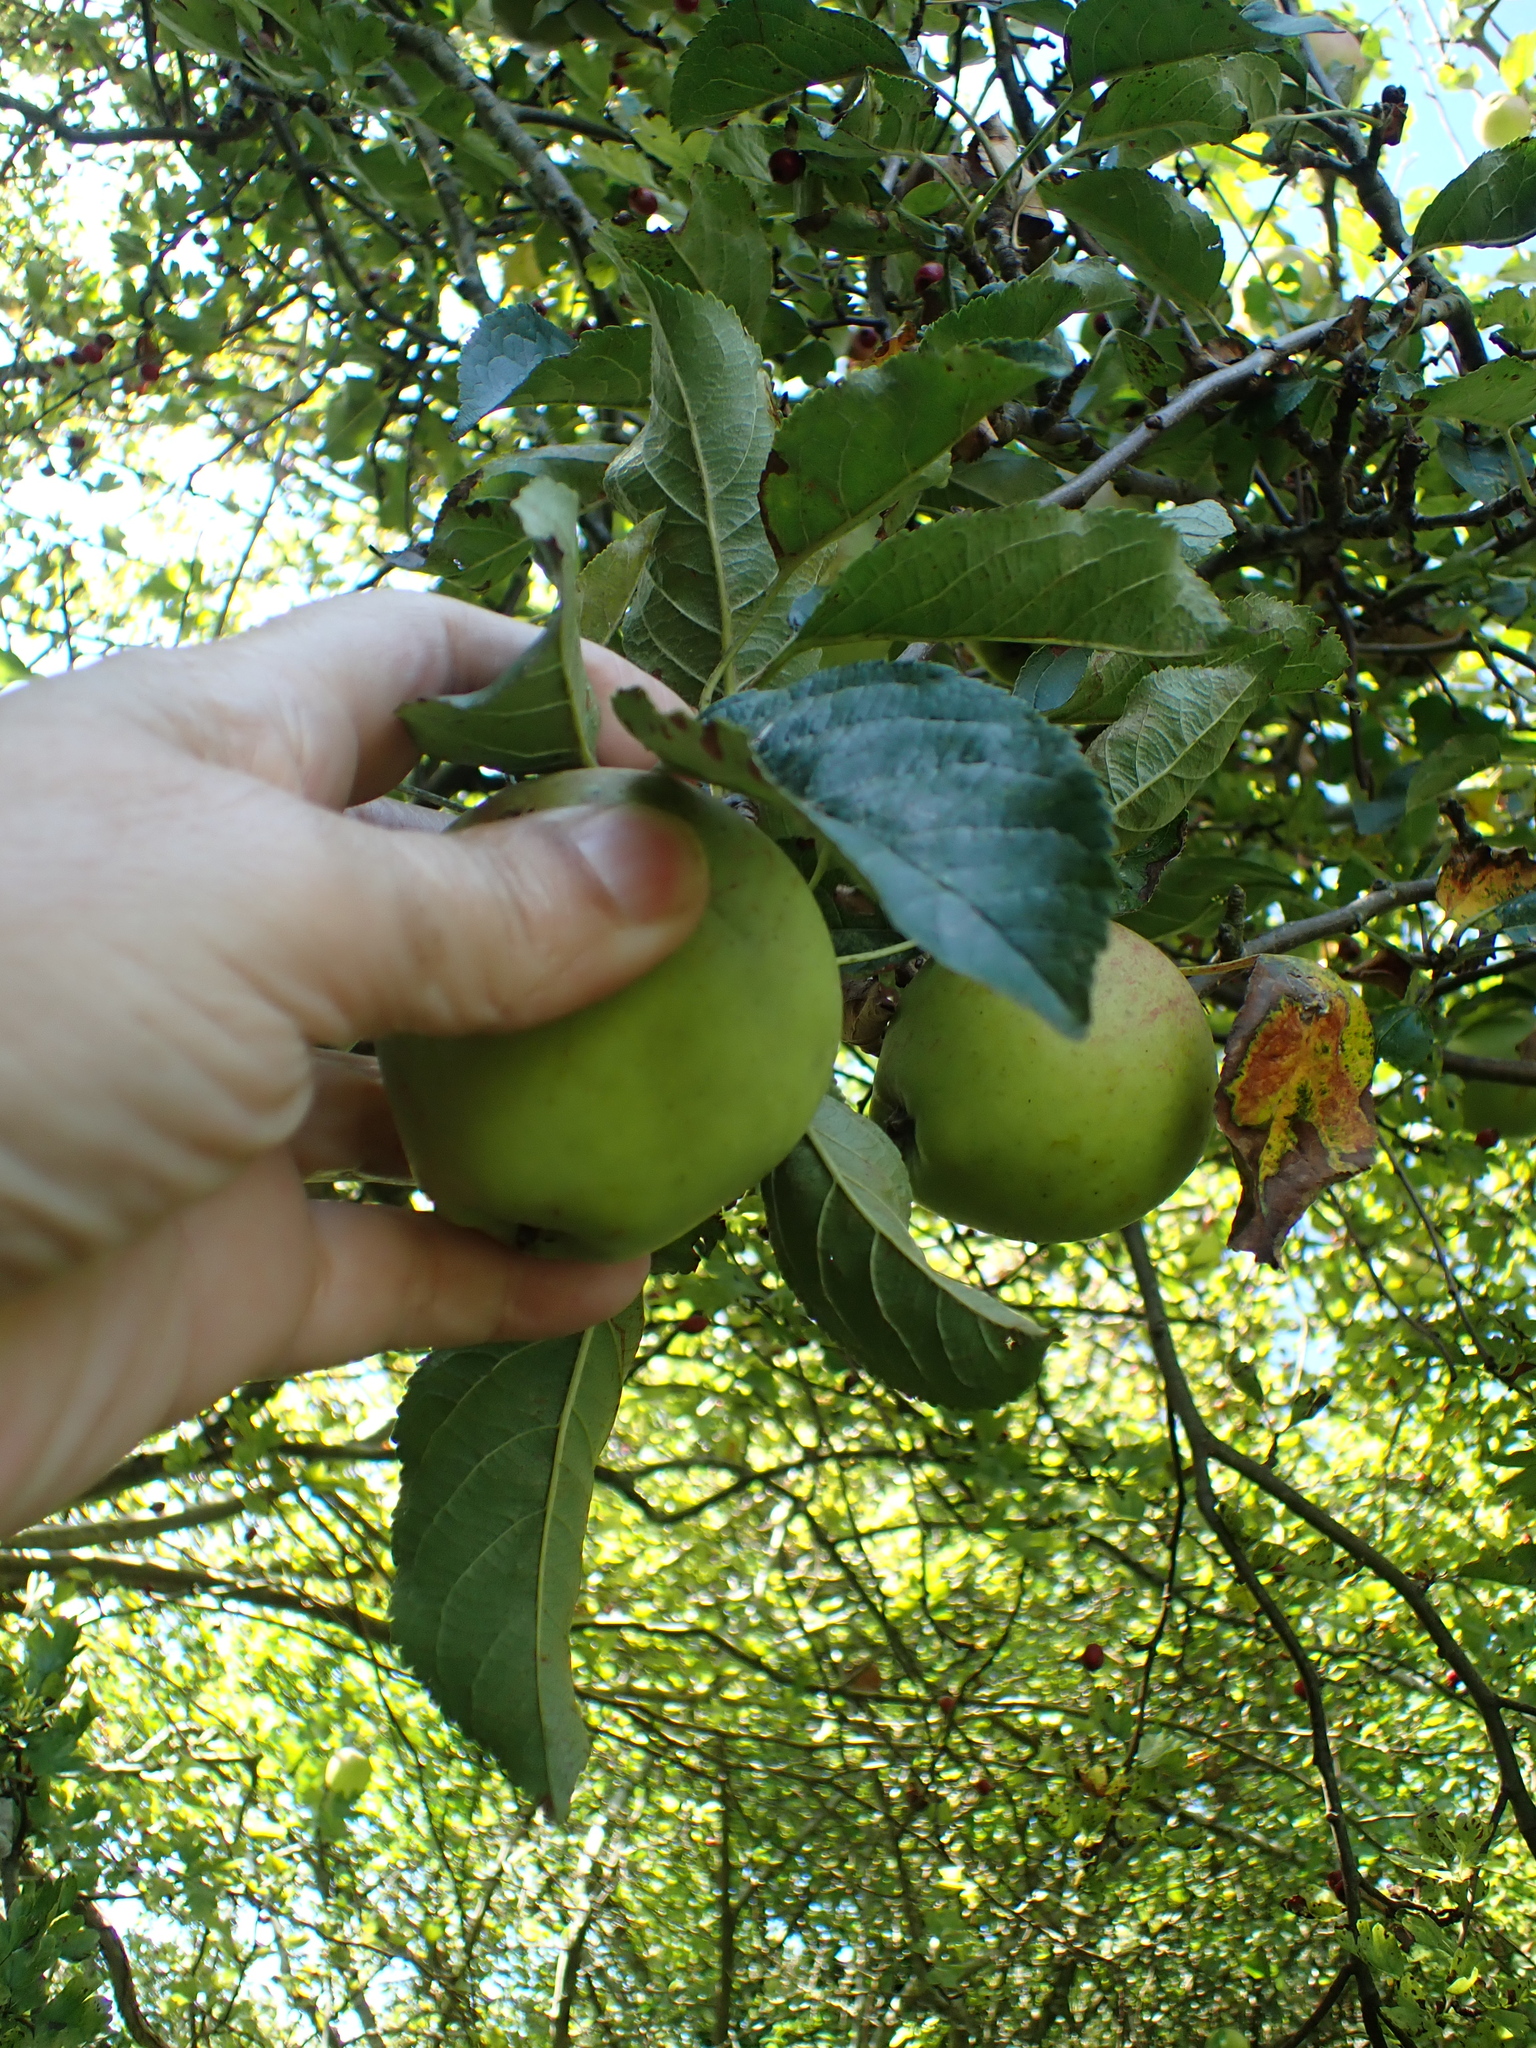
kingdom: Plantae
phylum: Tracheophyta
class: Magnoliopsida
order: Rosales
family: Rosaceae
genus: Malus
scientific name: Malus domestica
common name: Apple
